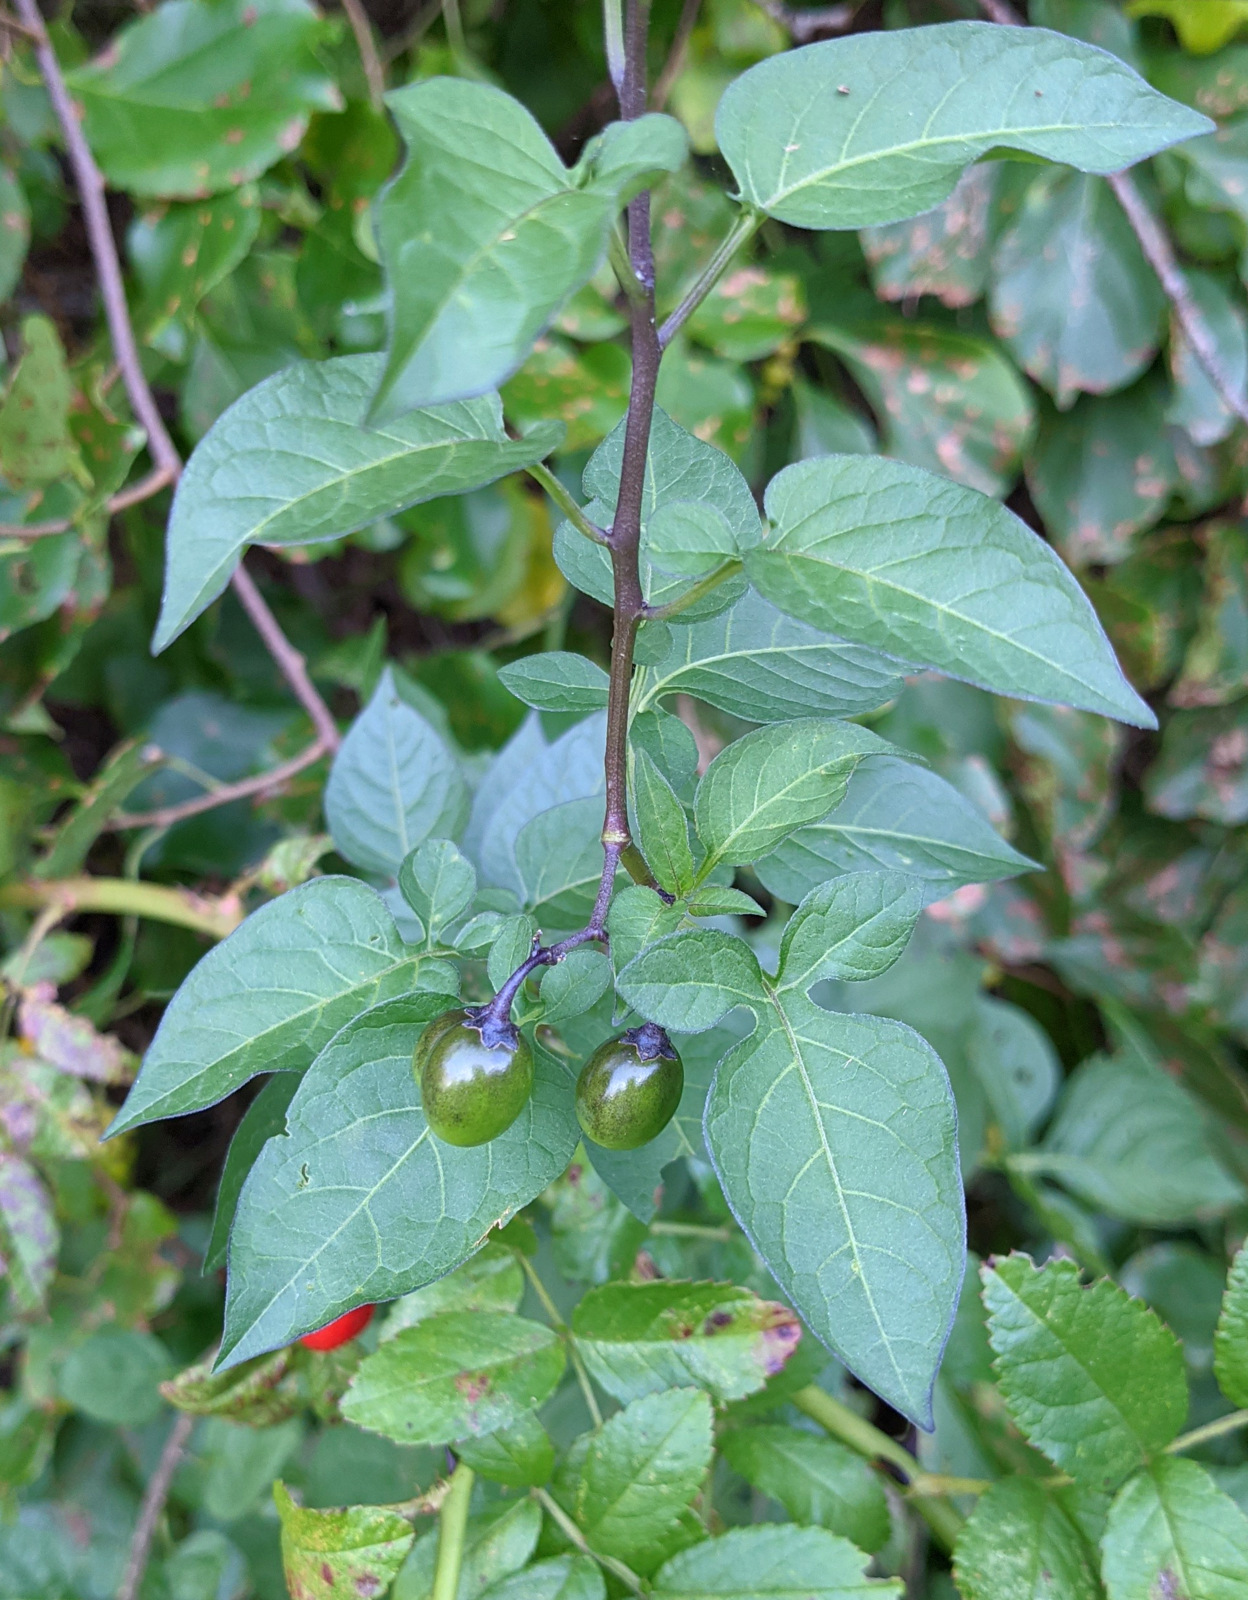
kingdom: Plantae
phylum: Tracheophyta
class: Magnoliopsida
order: Solanales
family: Solanaceae
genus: Solanum
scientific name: Solanum dulcamara
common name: Climbing nightshade
